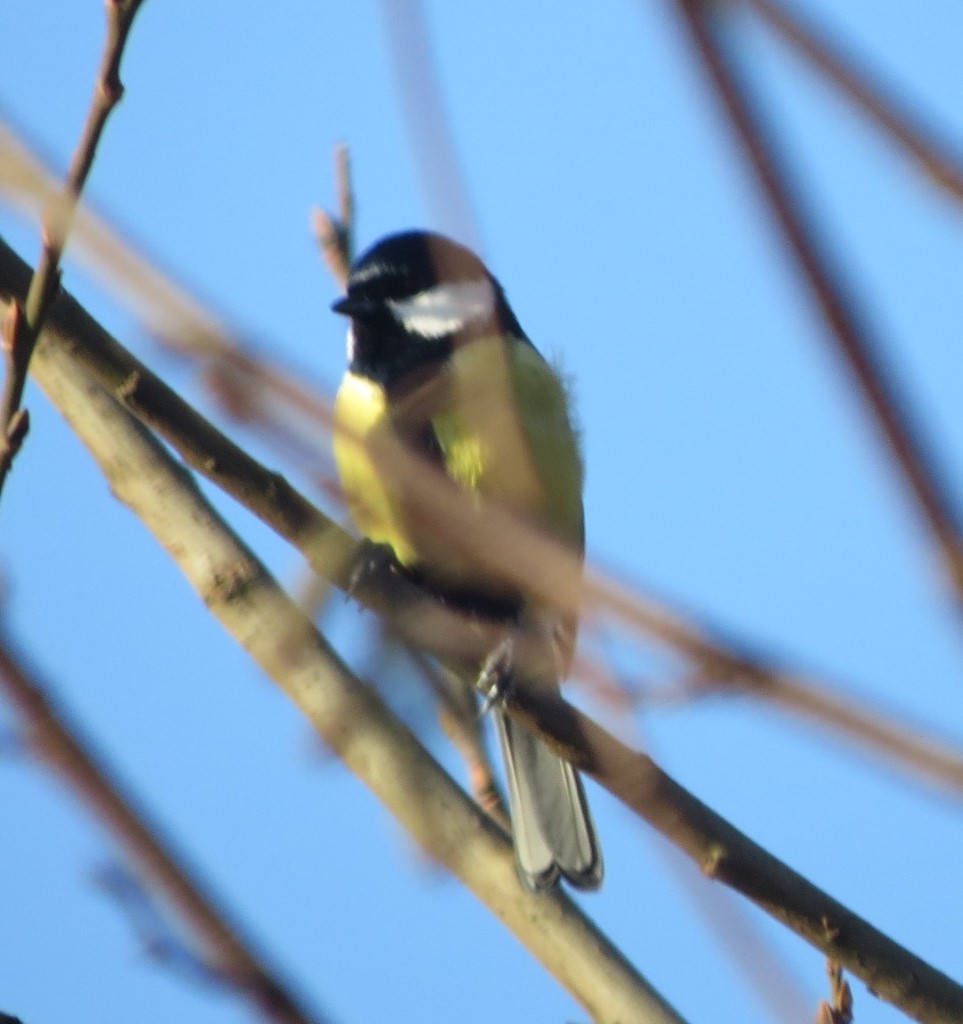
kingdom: Animalia
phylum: Chordata
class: Aves
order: Passeriformes
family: Paridae
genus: Parus
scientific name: Parus major
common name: Great tit
